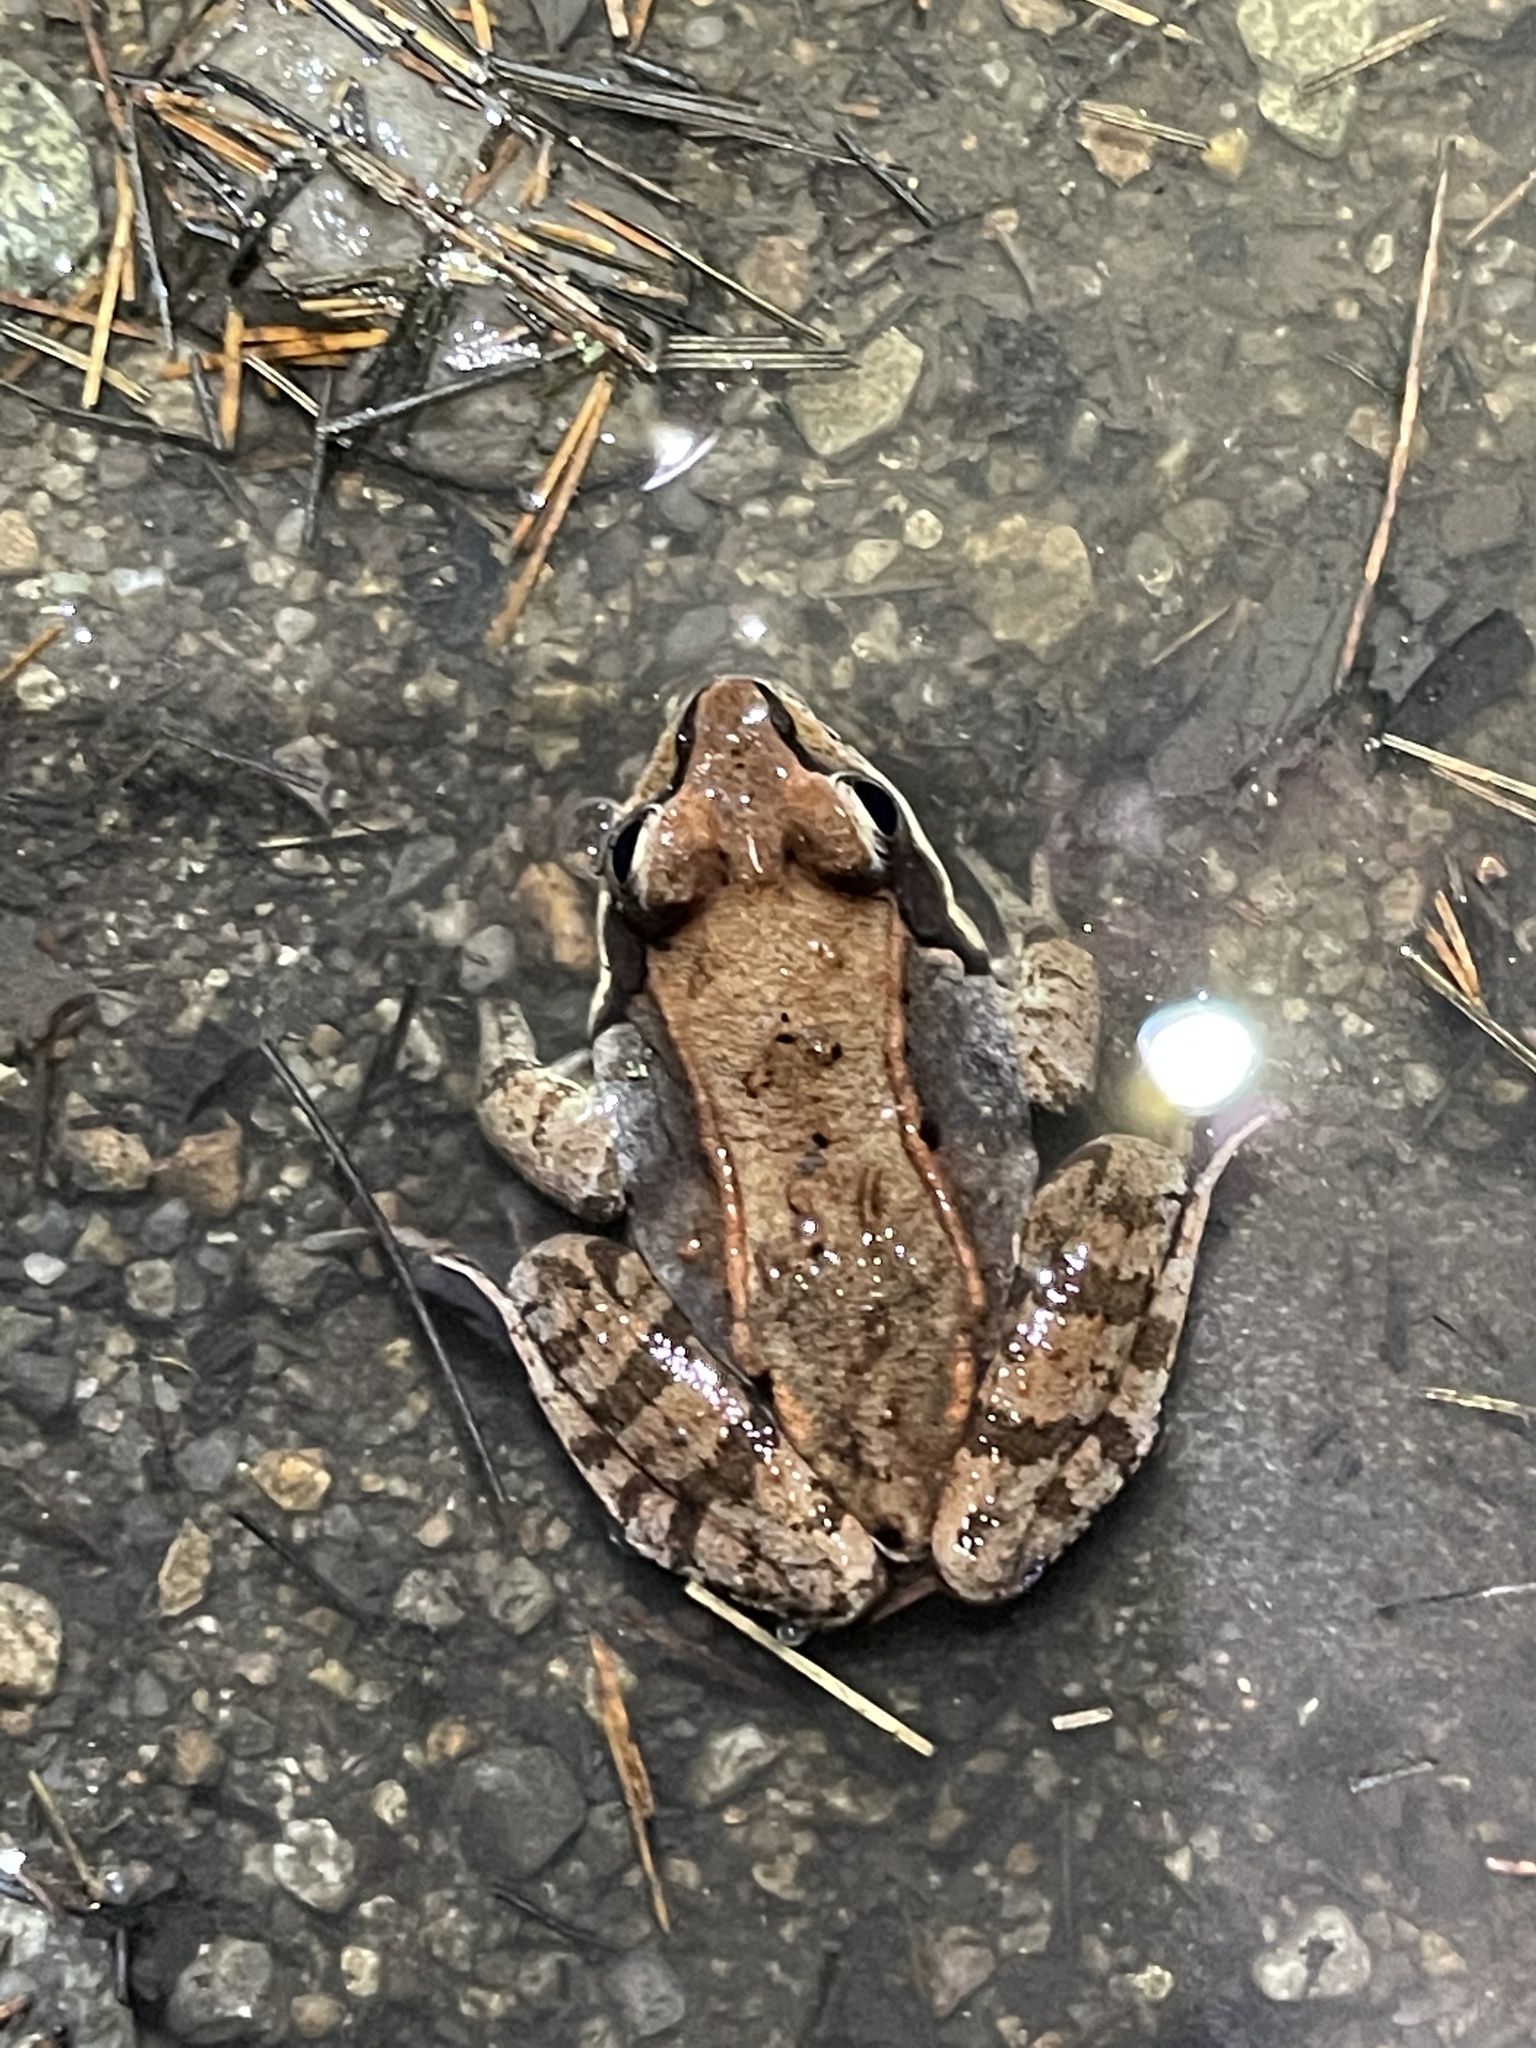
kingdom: Animalia
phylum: Chordata
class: Amphibia
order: Anura
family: Ranidae
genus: Lithobates
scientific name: Lithobates sylvaticus
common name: Wood frog
